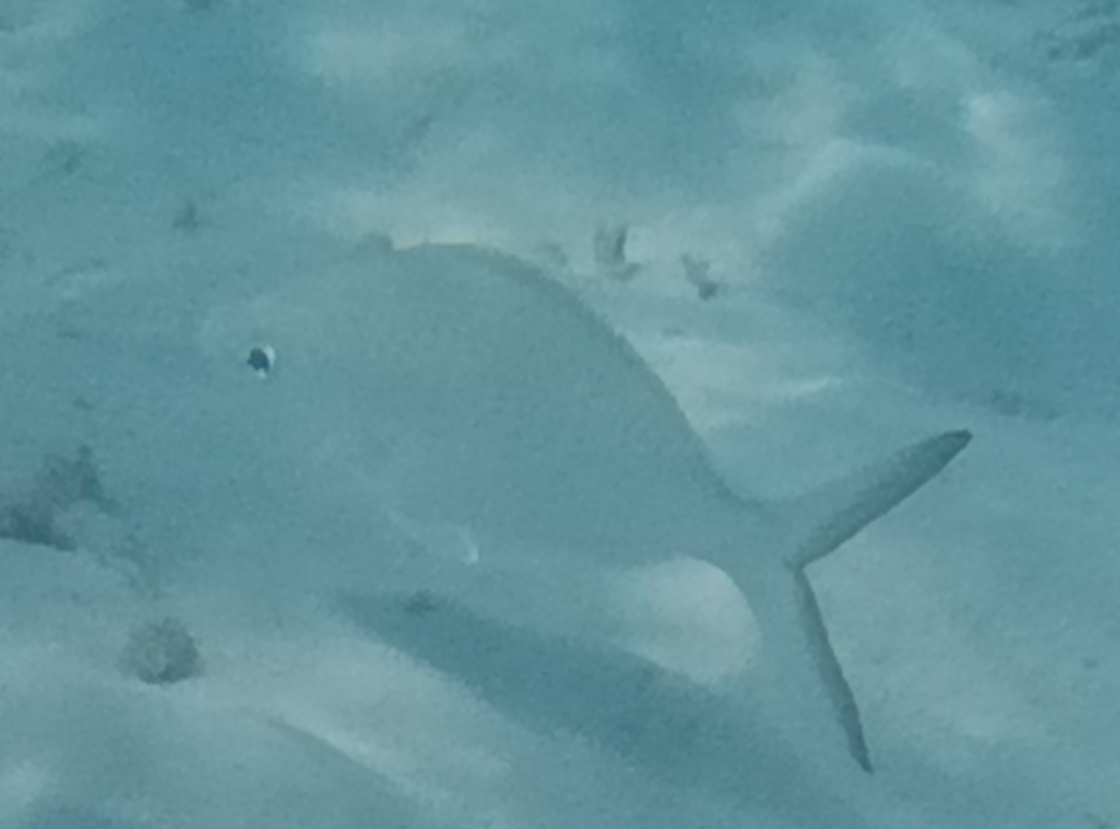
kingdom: Animalia
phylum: Chordata
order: Perciformes
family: Gerreidae
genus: Gerres
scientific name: Gerres longirostris
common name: Strongspine silver-biddy
